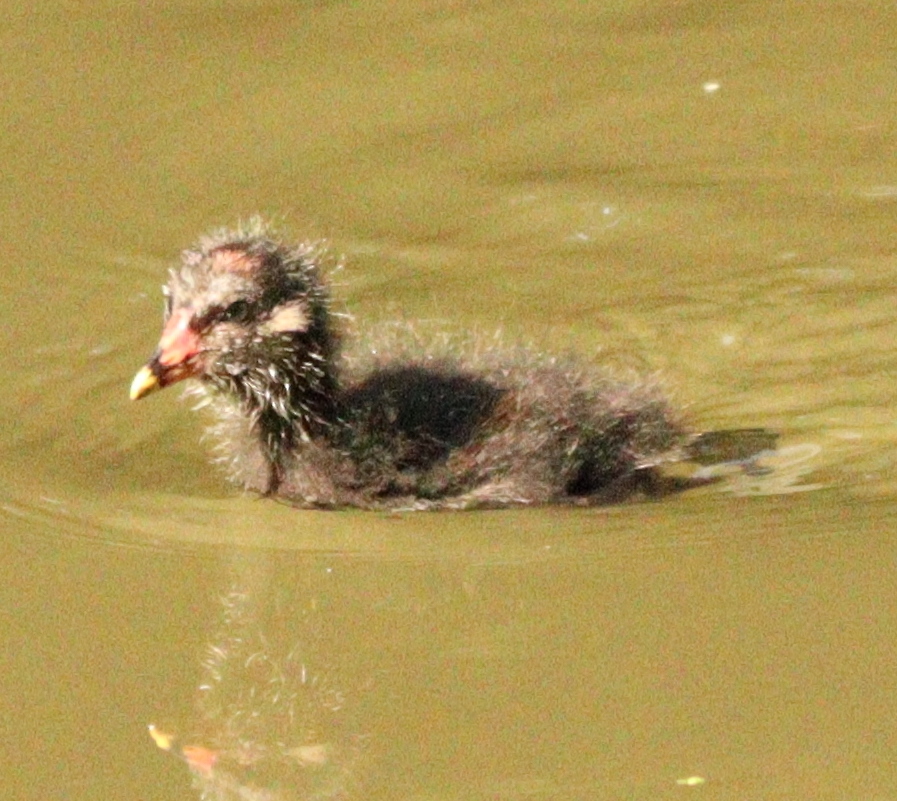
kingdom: Animalia
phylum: Chordata
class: Aves
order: Gruiformes
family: Rallidae
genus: Gallinula
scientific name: Gallinula chloropus
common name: Common moorhen
